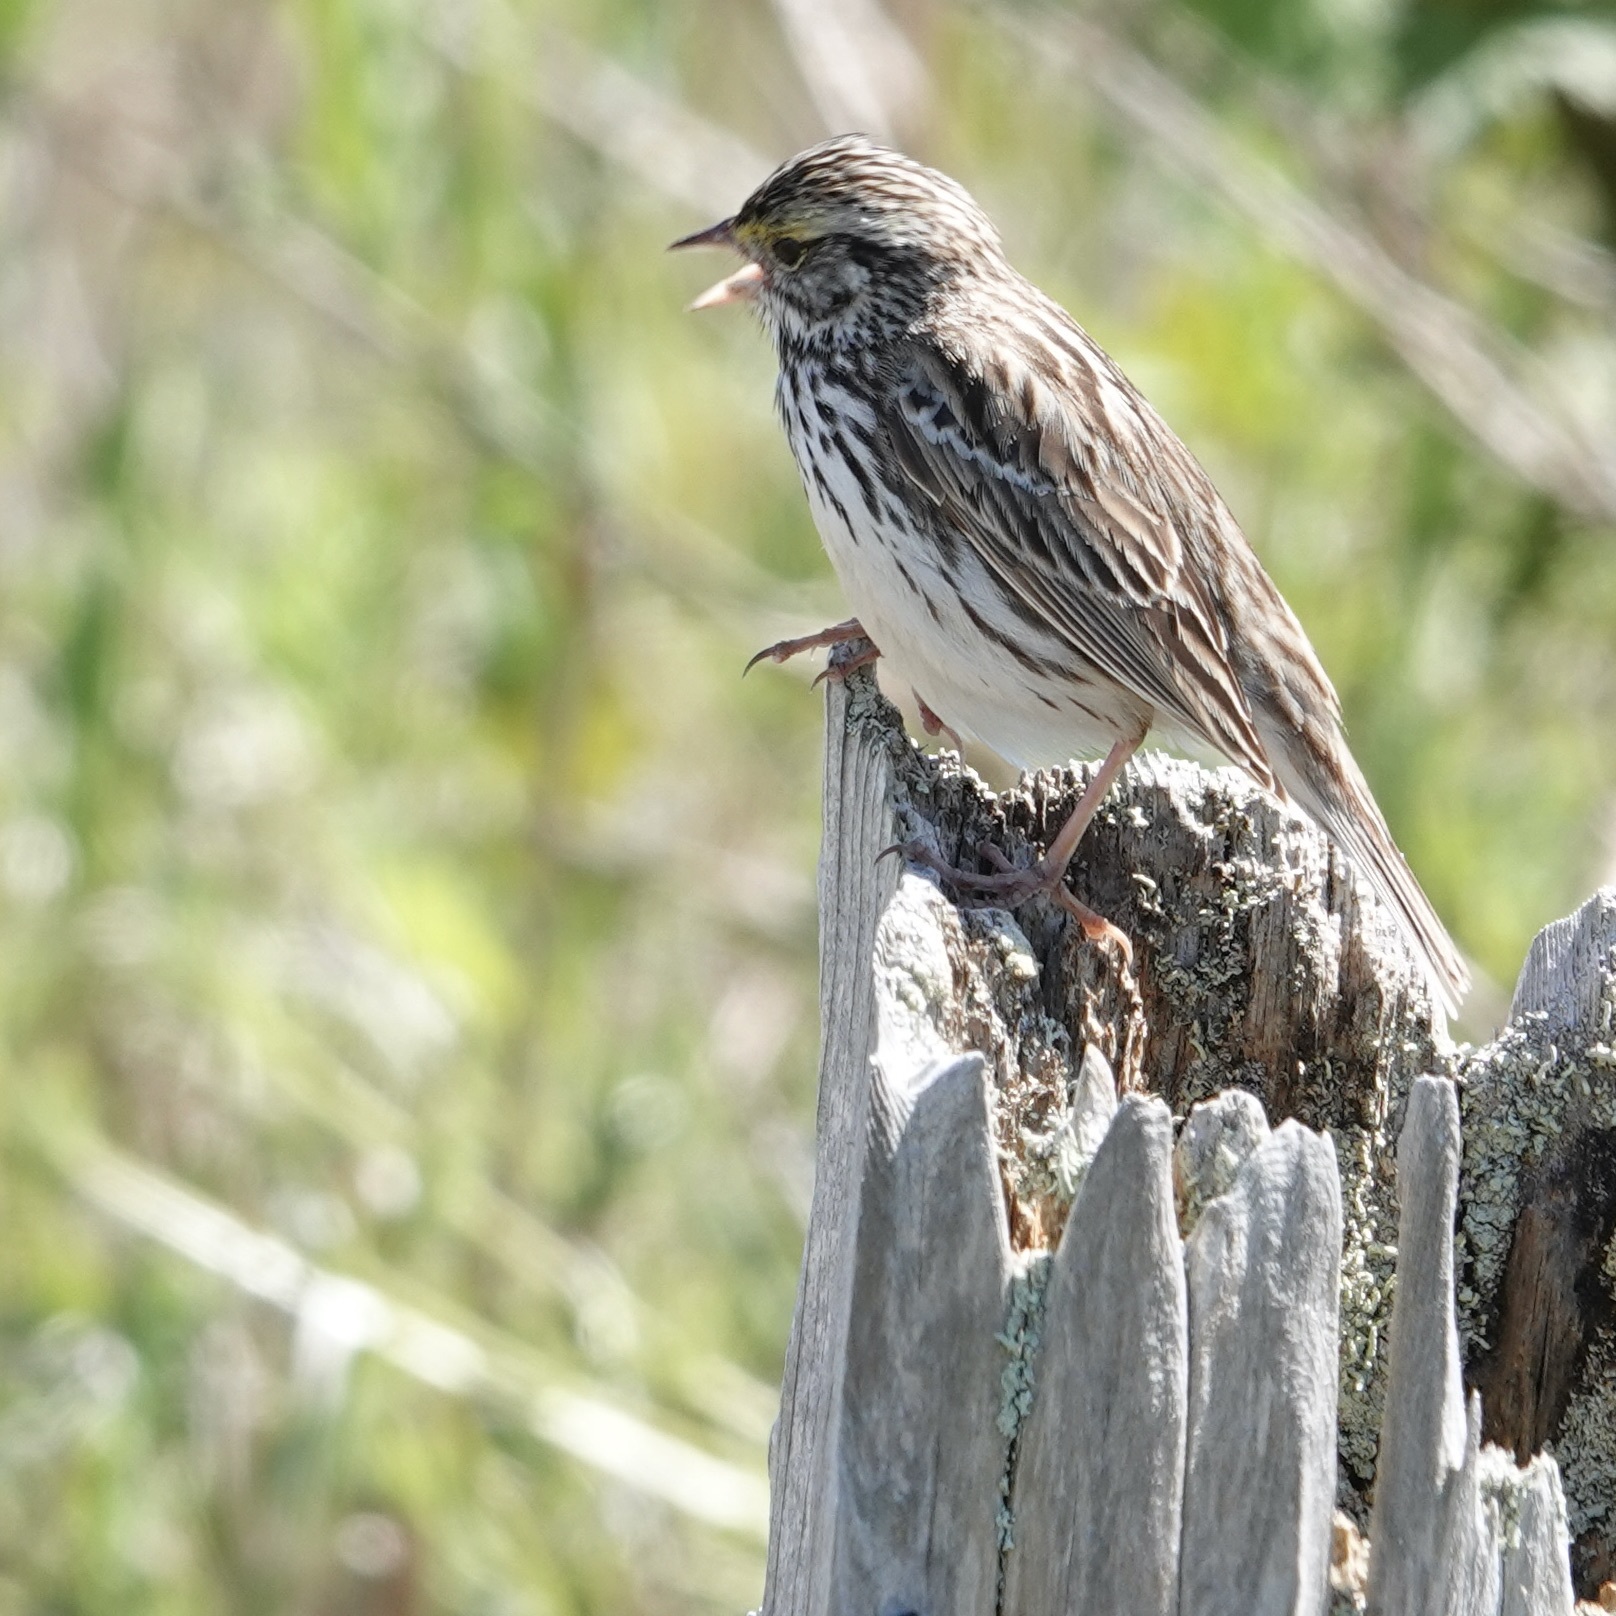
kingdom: Animalia
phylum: Chordata
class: Aves
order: Passeriformes
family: Passerellidae
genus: Passerculus
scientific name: Passerculus sandwichensis
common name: Savannah sparrow
